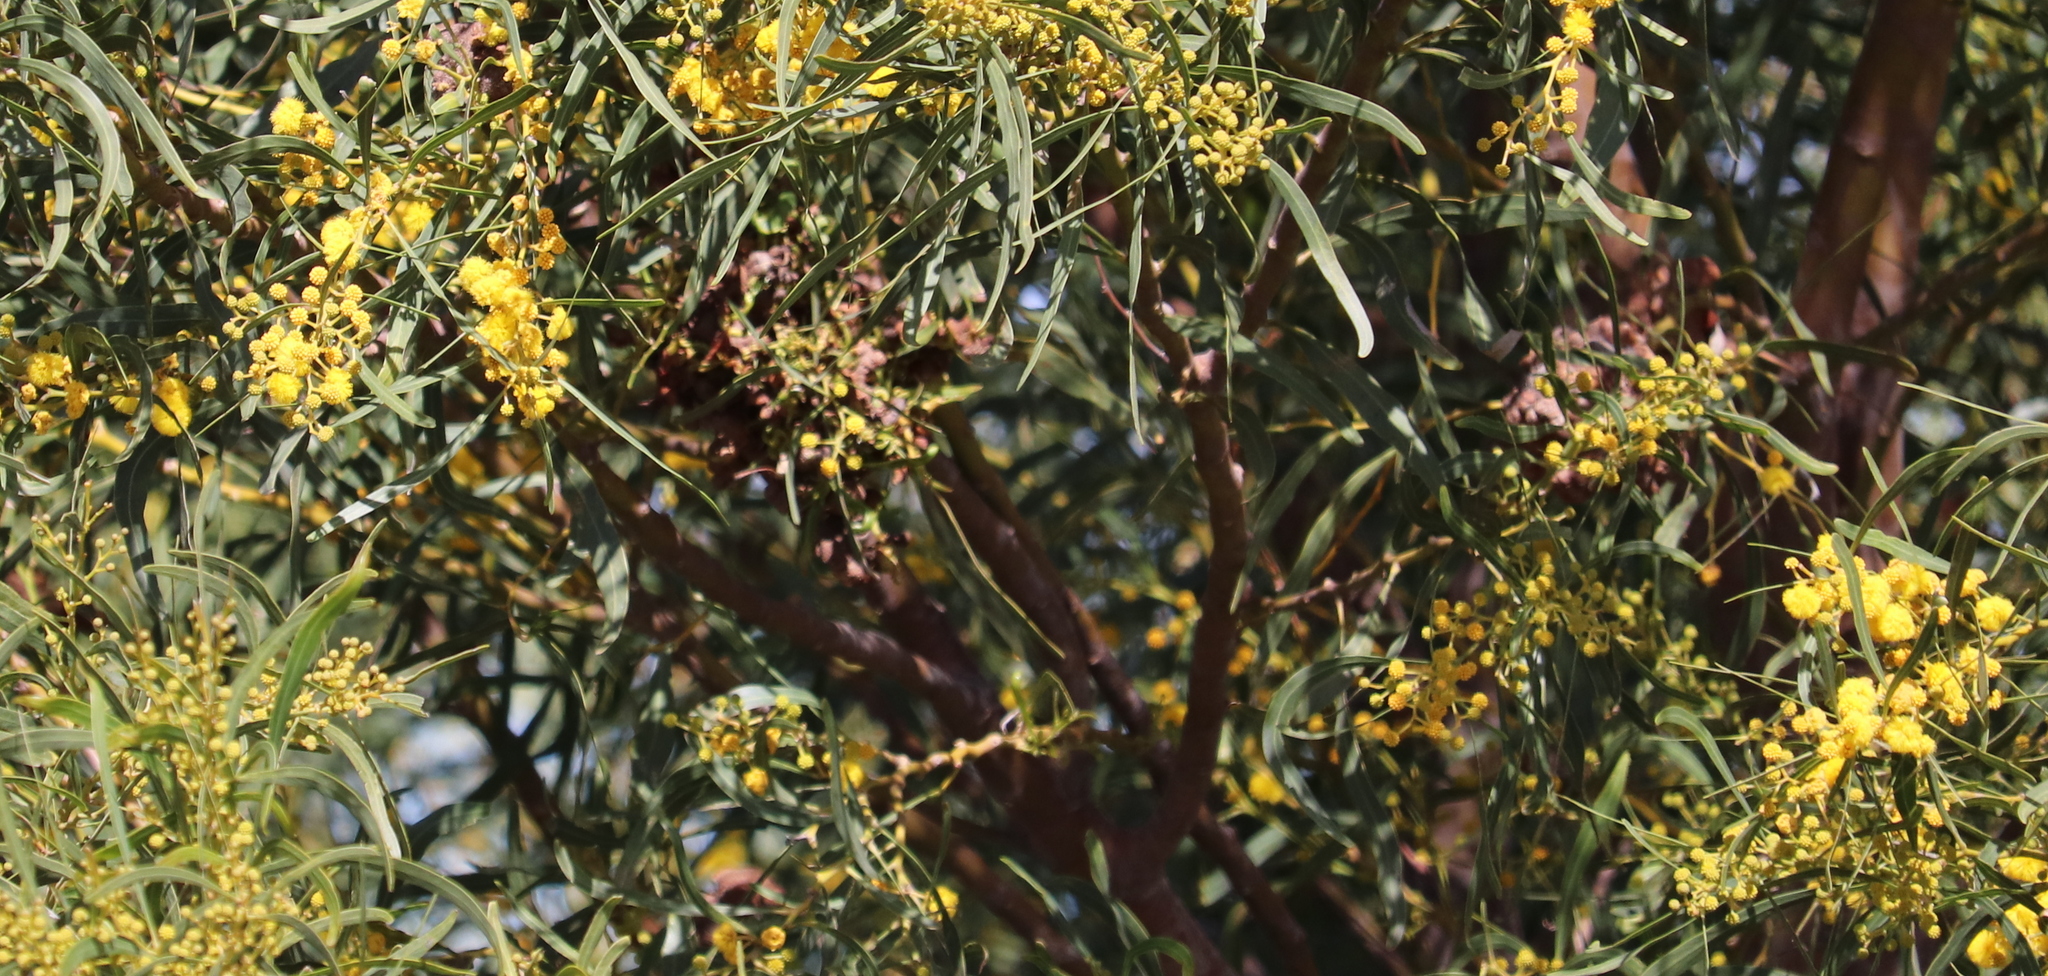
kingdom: Plantae
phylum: Tracheophyta
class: Magnoliopsida
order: Fabales
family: Fabaceae
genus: Acacia
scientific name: Acacia saligna
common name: Orange wattle
